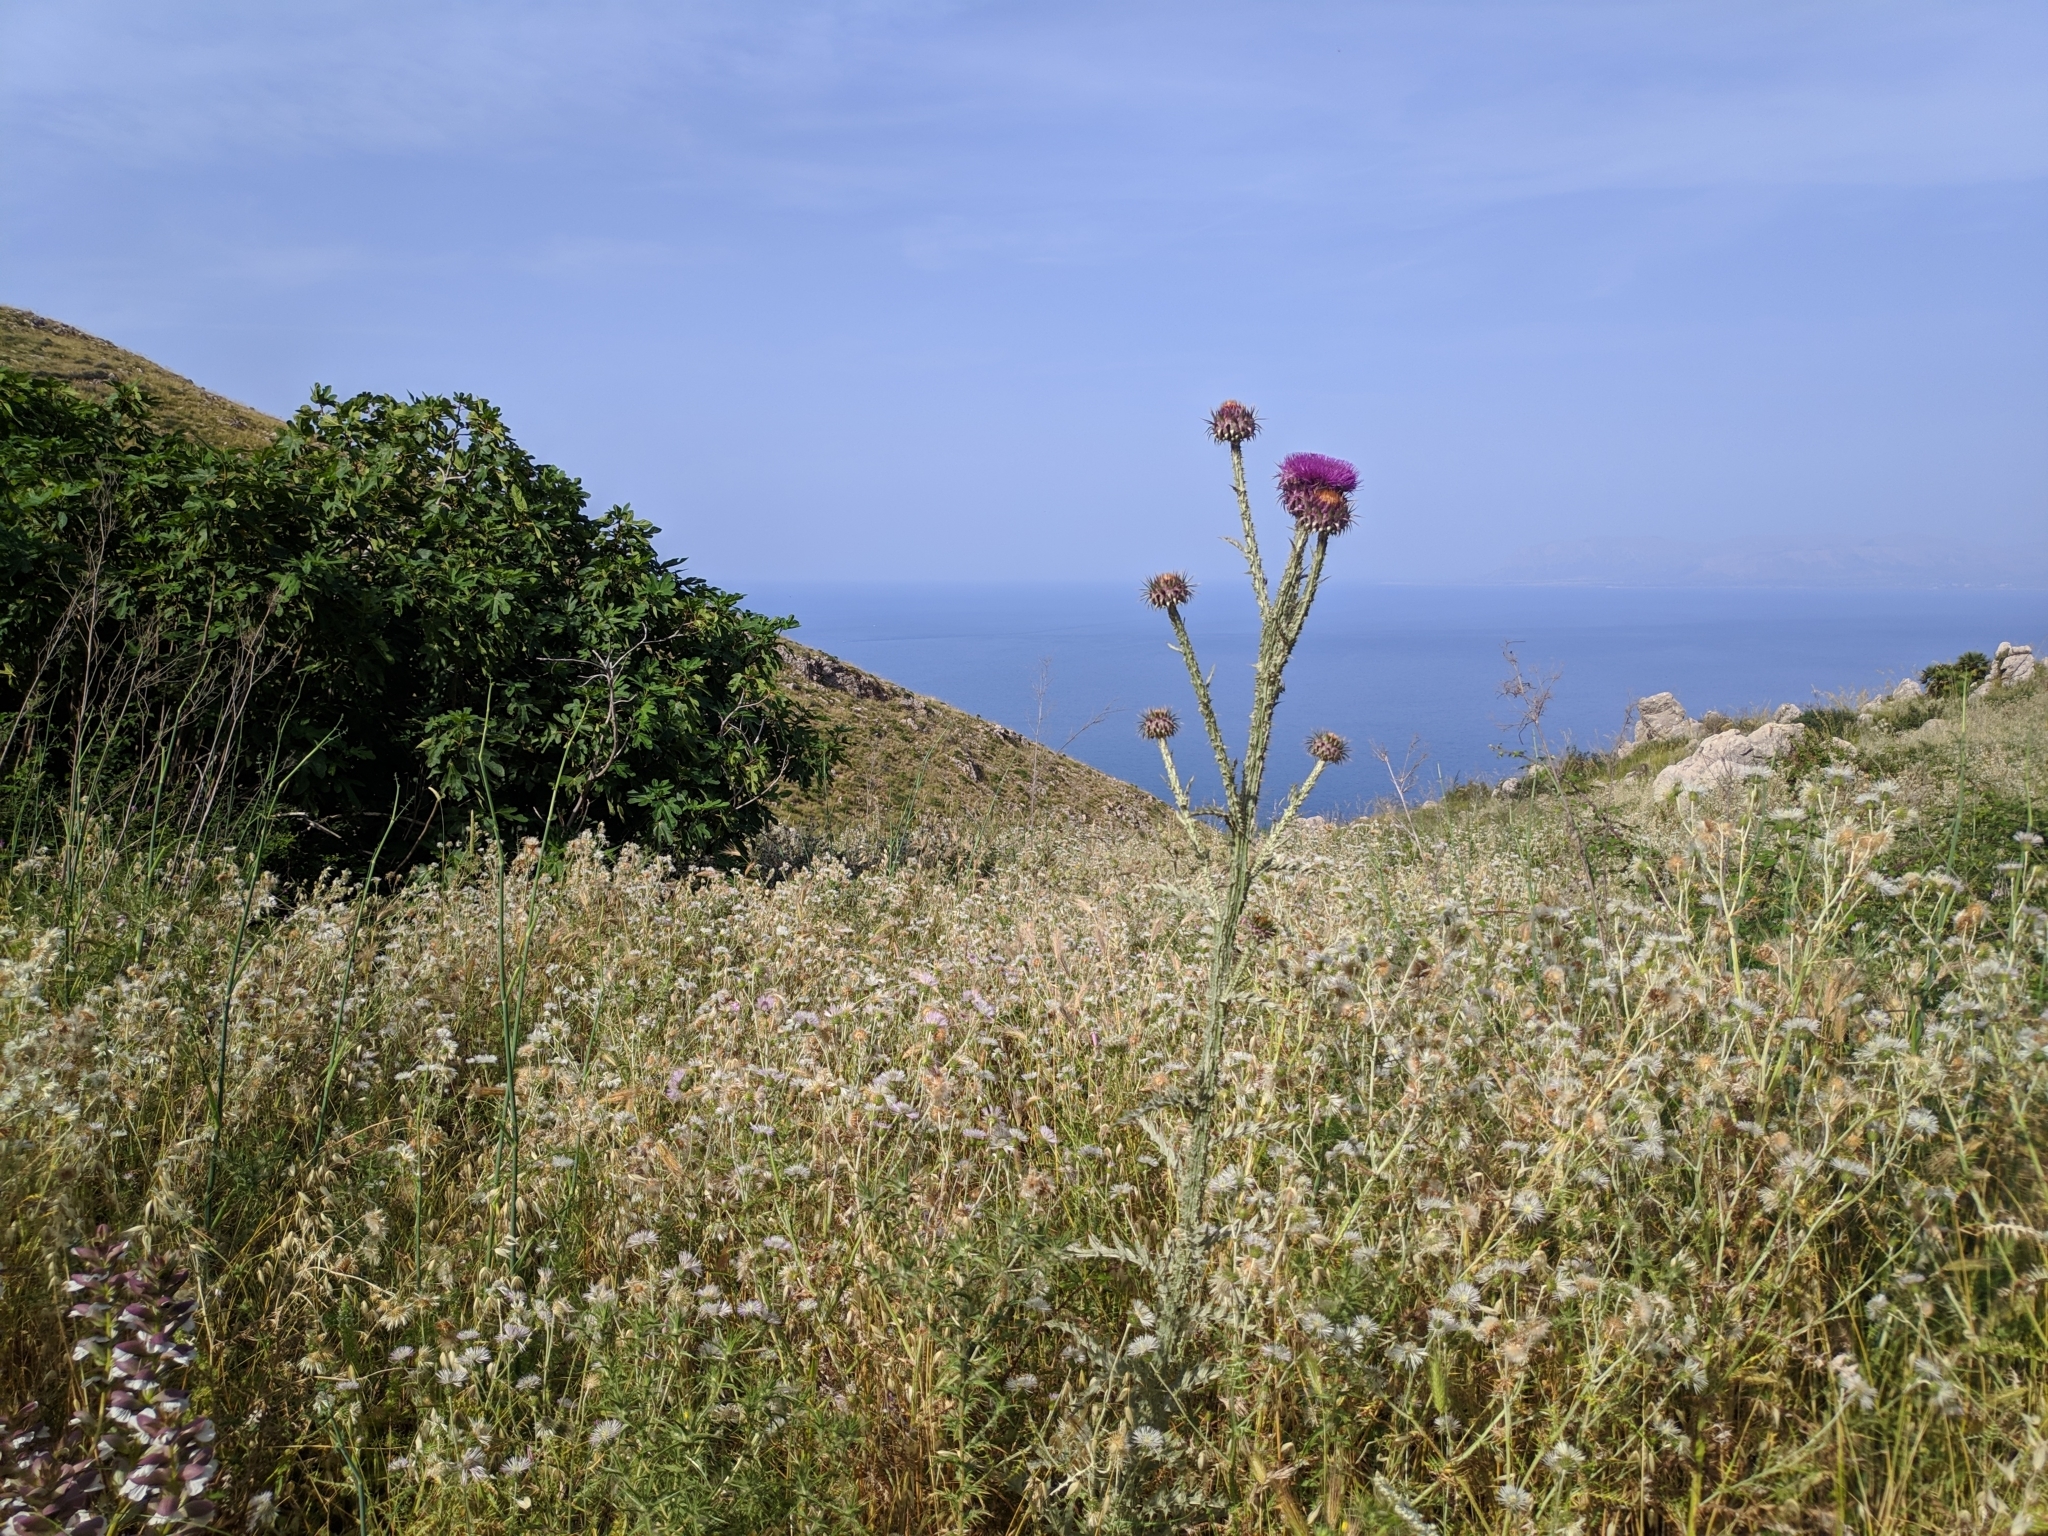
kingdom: Plantae
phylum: Tracheophyta
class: Magnoliopsida
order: Asterales
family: Asteraceae
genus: Onopordum
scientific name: Onopordum illyricum
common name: Illyrian thistle
